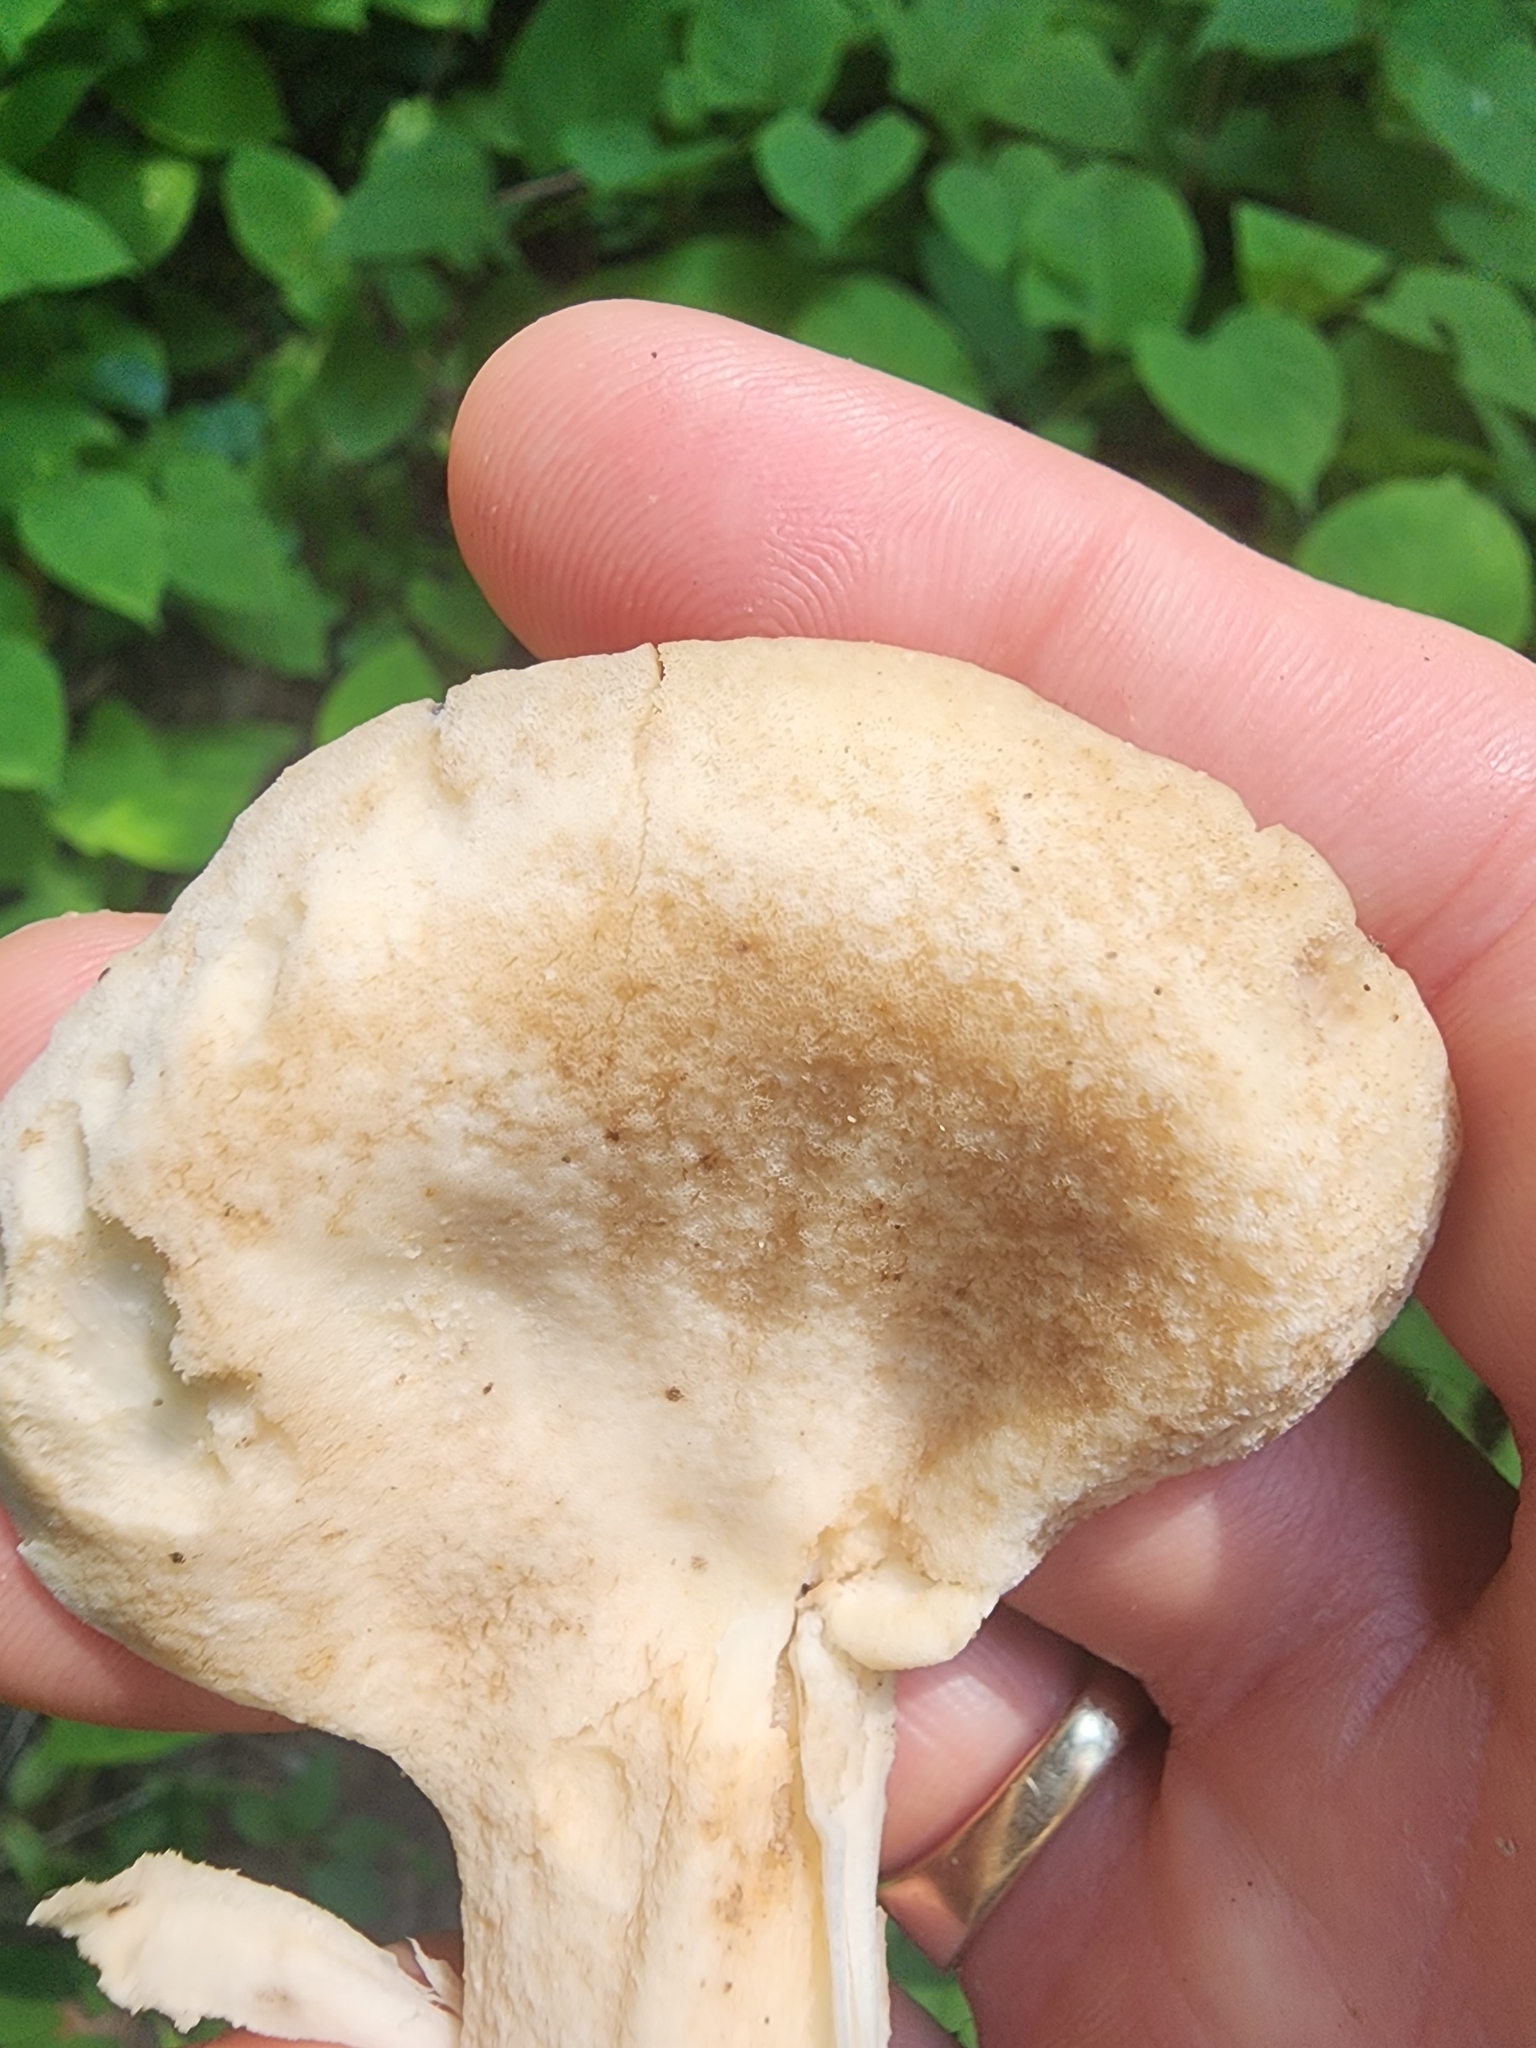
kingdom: Fungi
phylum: Basidiomycota
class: Agaricomycetes
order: Polyporales
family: Meripilaceae
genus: Meripilus
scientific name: Meripilus sumstinei
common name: Black-staining polypore
